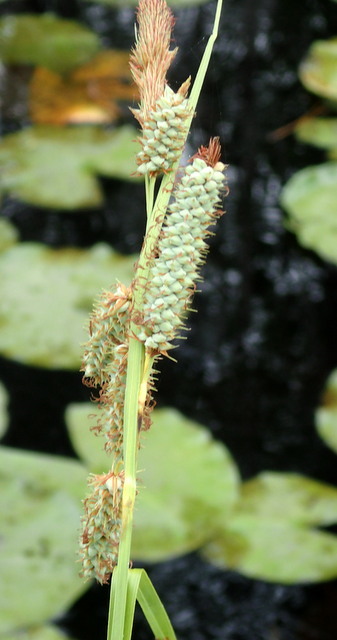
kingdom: Plantae
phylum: Tracheophyta
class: Liliopsida
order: Poales
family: Cyperaceae
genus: Carex
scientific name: Carex glaucescens
